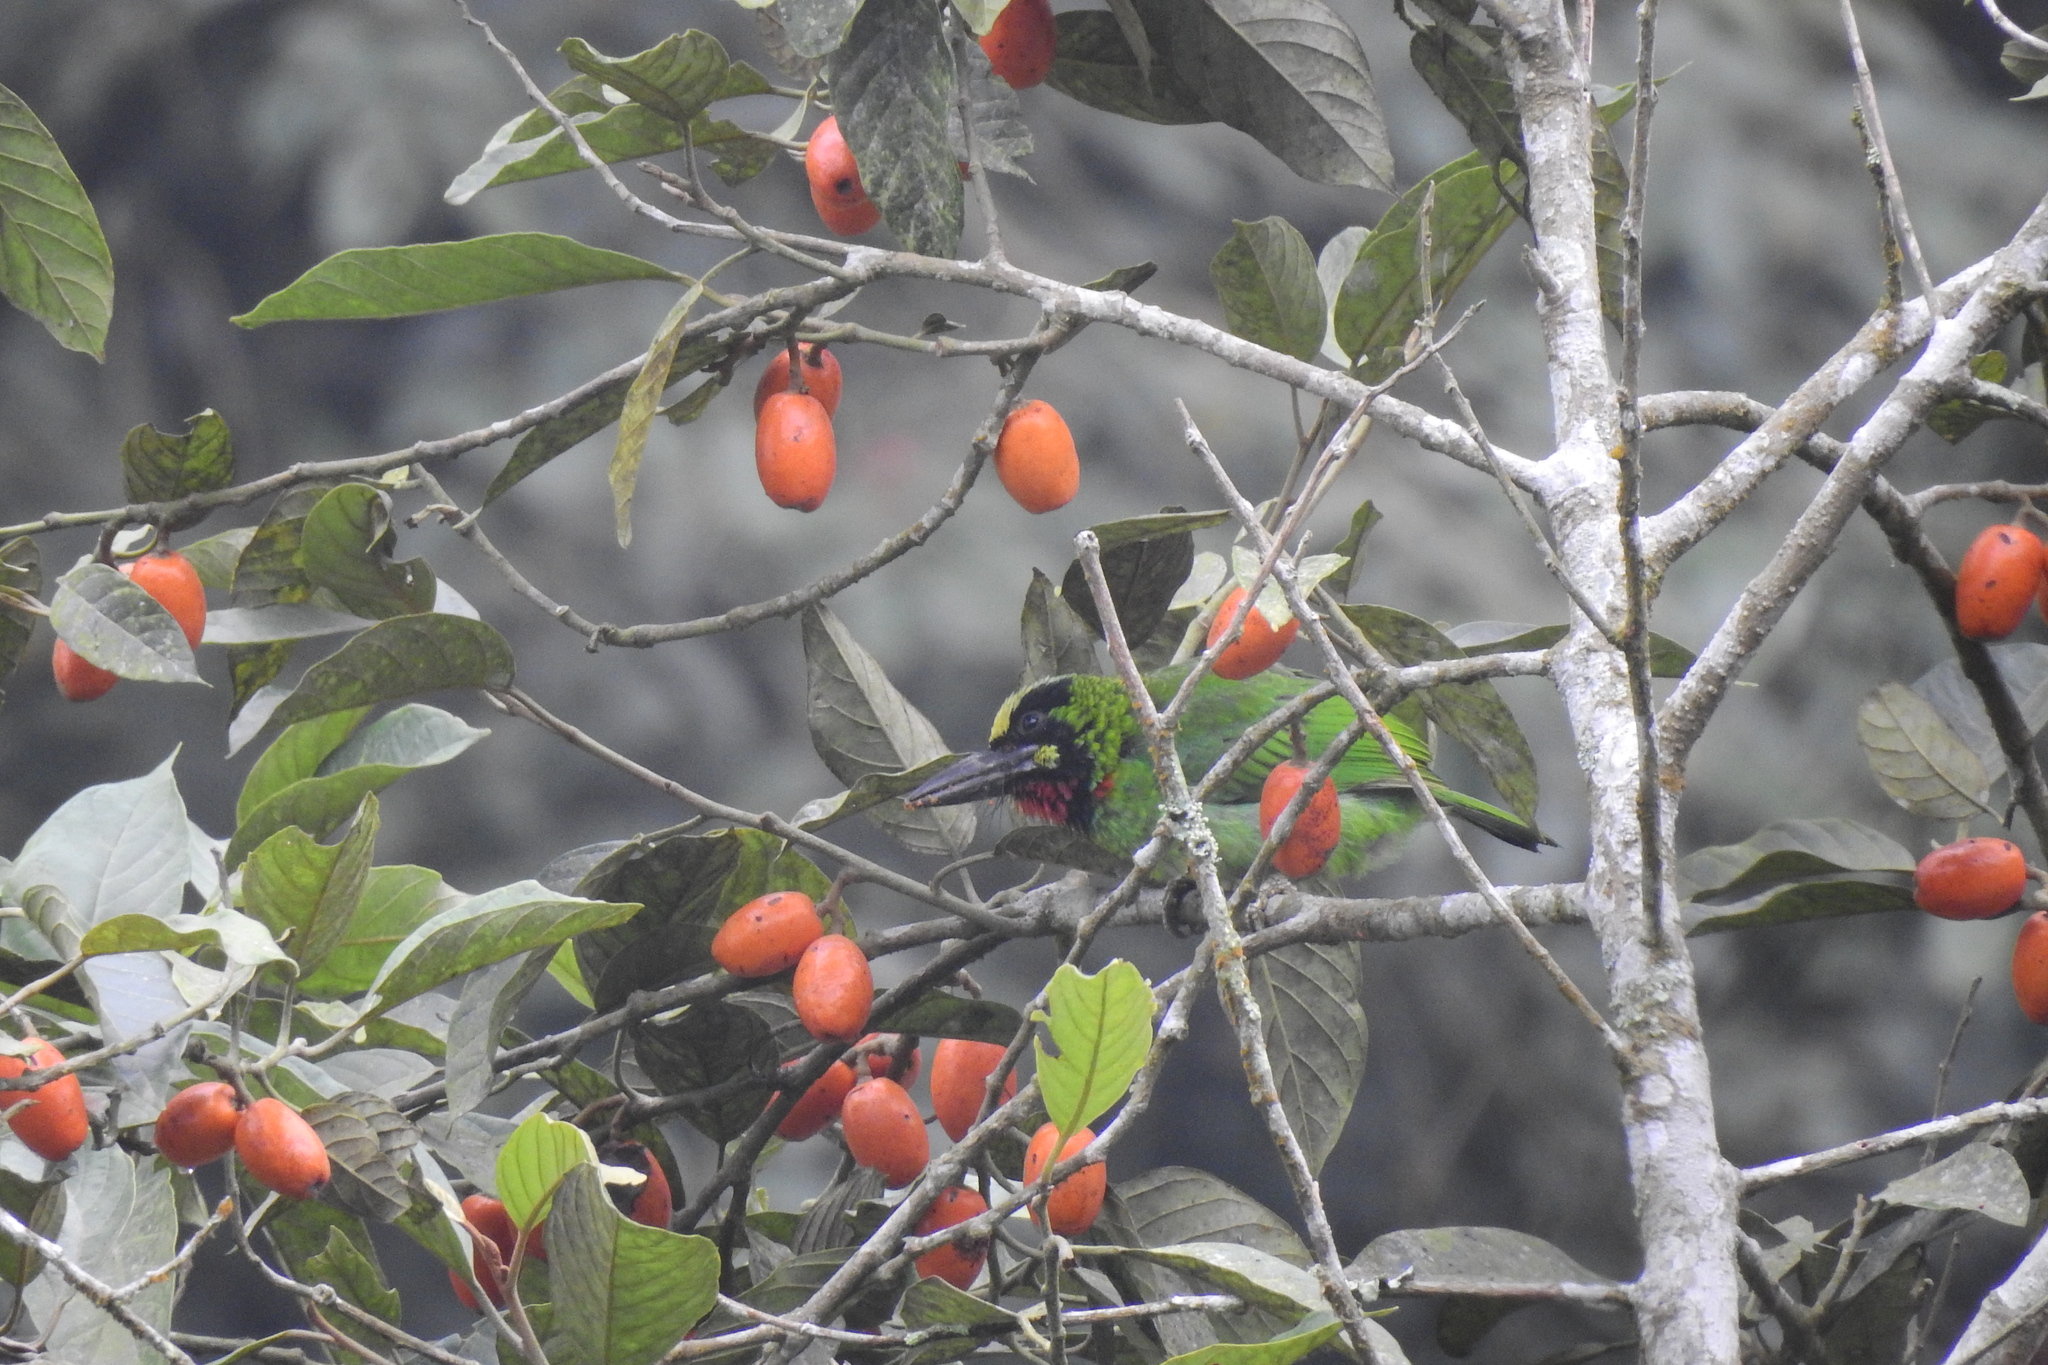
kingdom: Animalia
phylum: Chordata
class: Aves
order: Piciformes
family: Megalaimidae
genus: Psilopogon
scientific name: Psilopogon javensis
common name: Black-banded barbet
